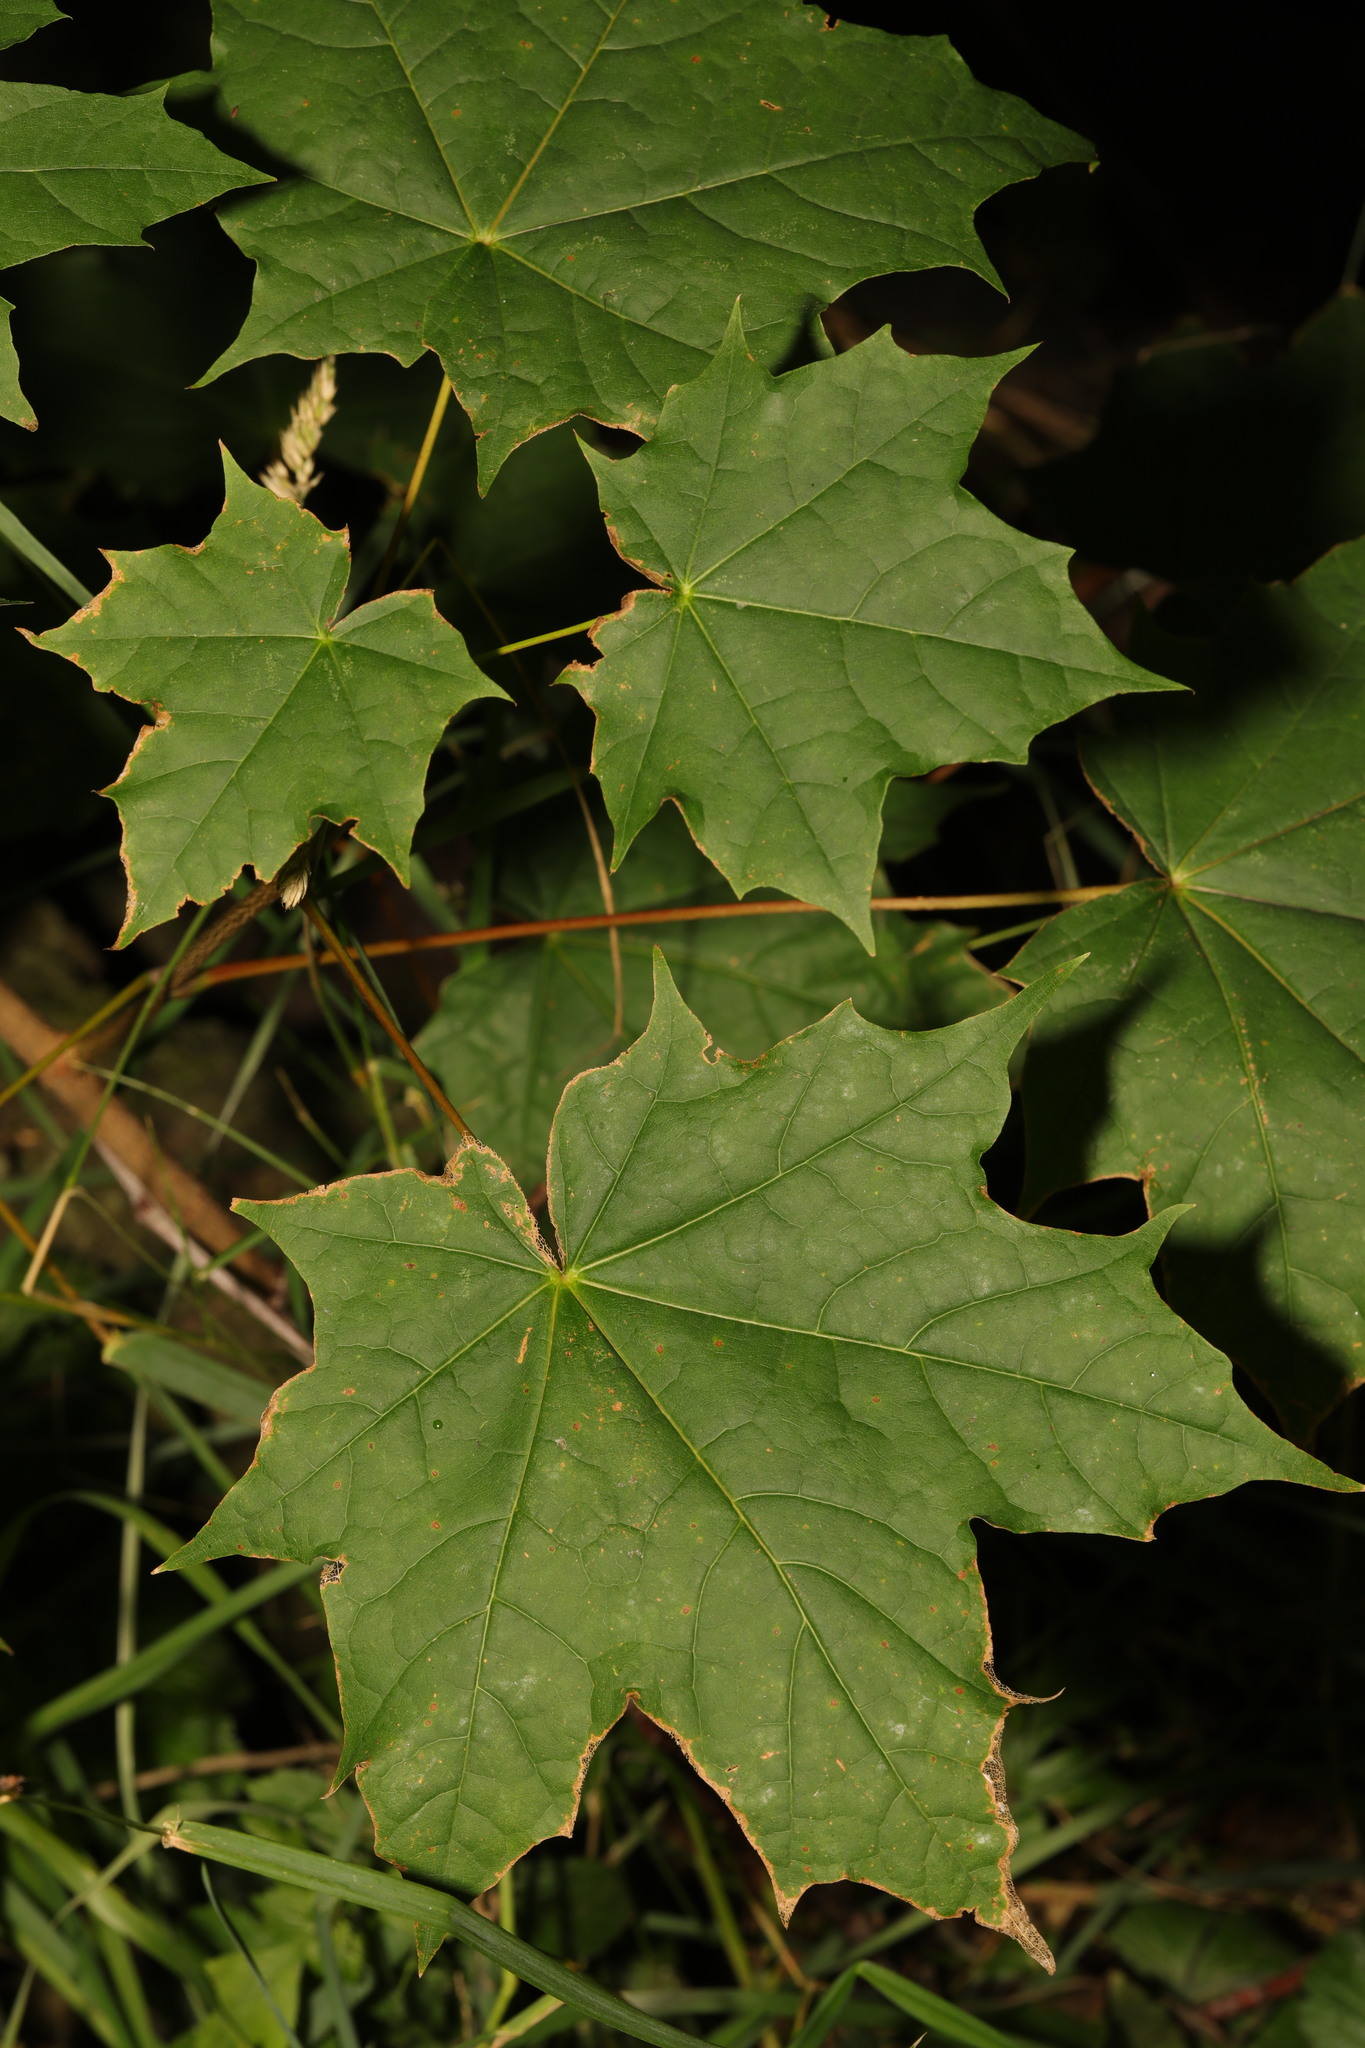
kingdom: Plantae
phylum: Tracheophyta
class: Magnoliopsida
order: Sapindales
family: Sapindaceae
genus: Acer
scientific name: Acer platanoides
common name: Norway maple
